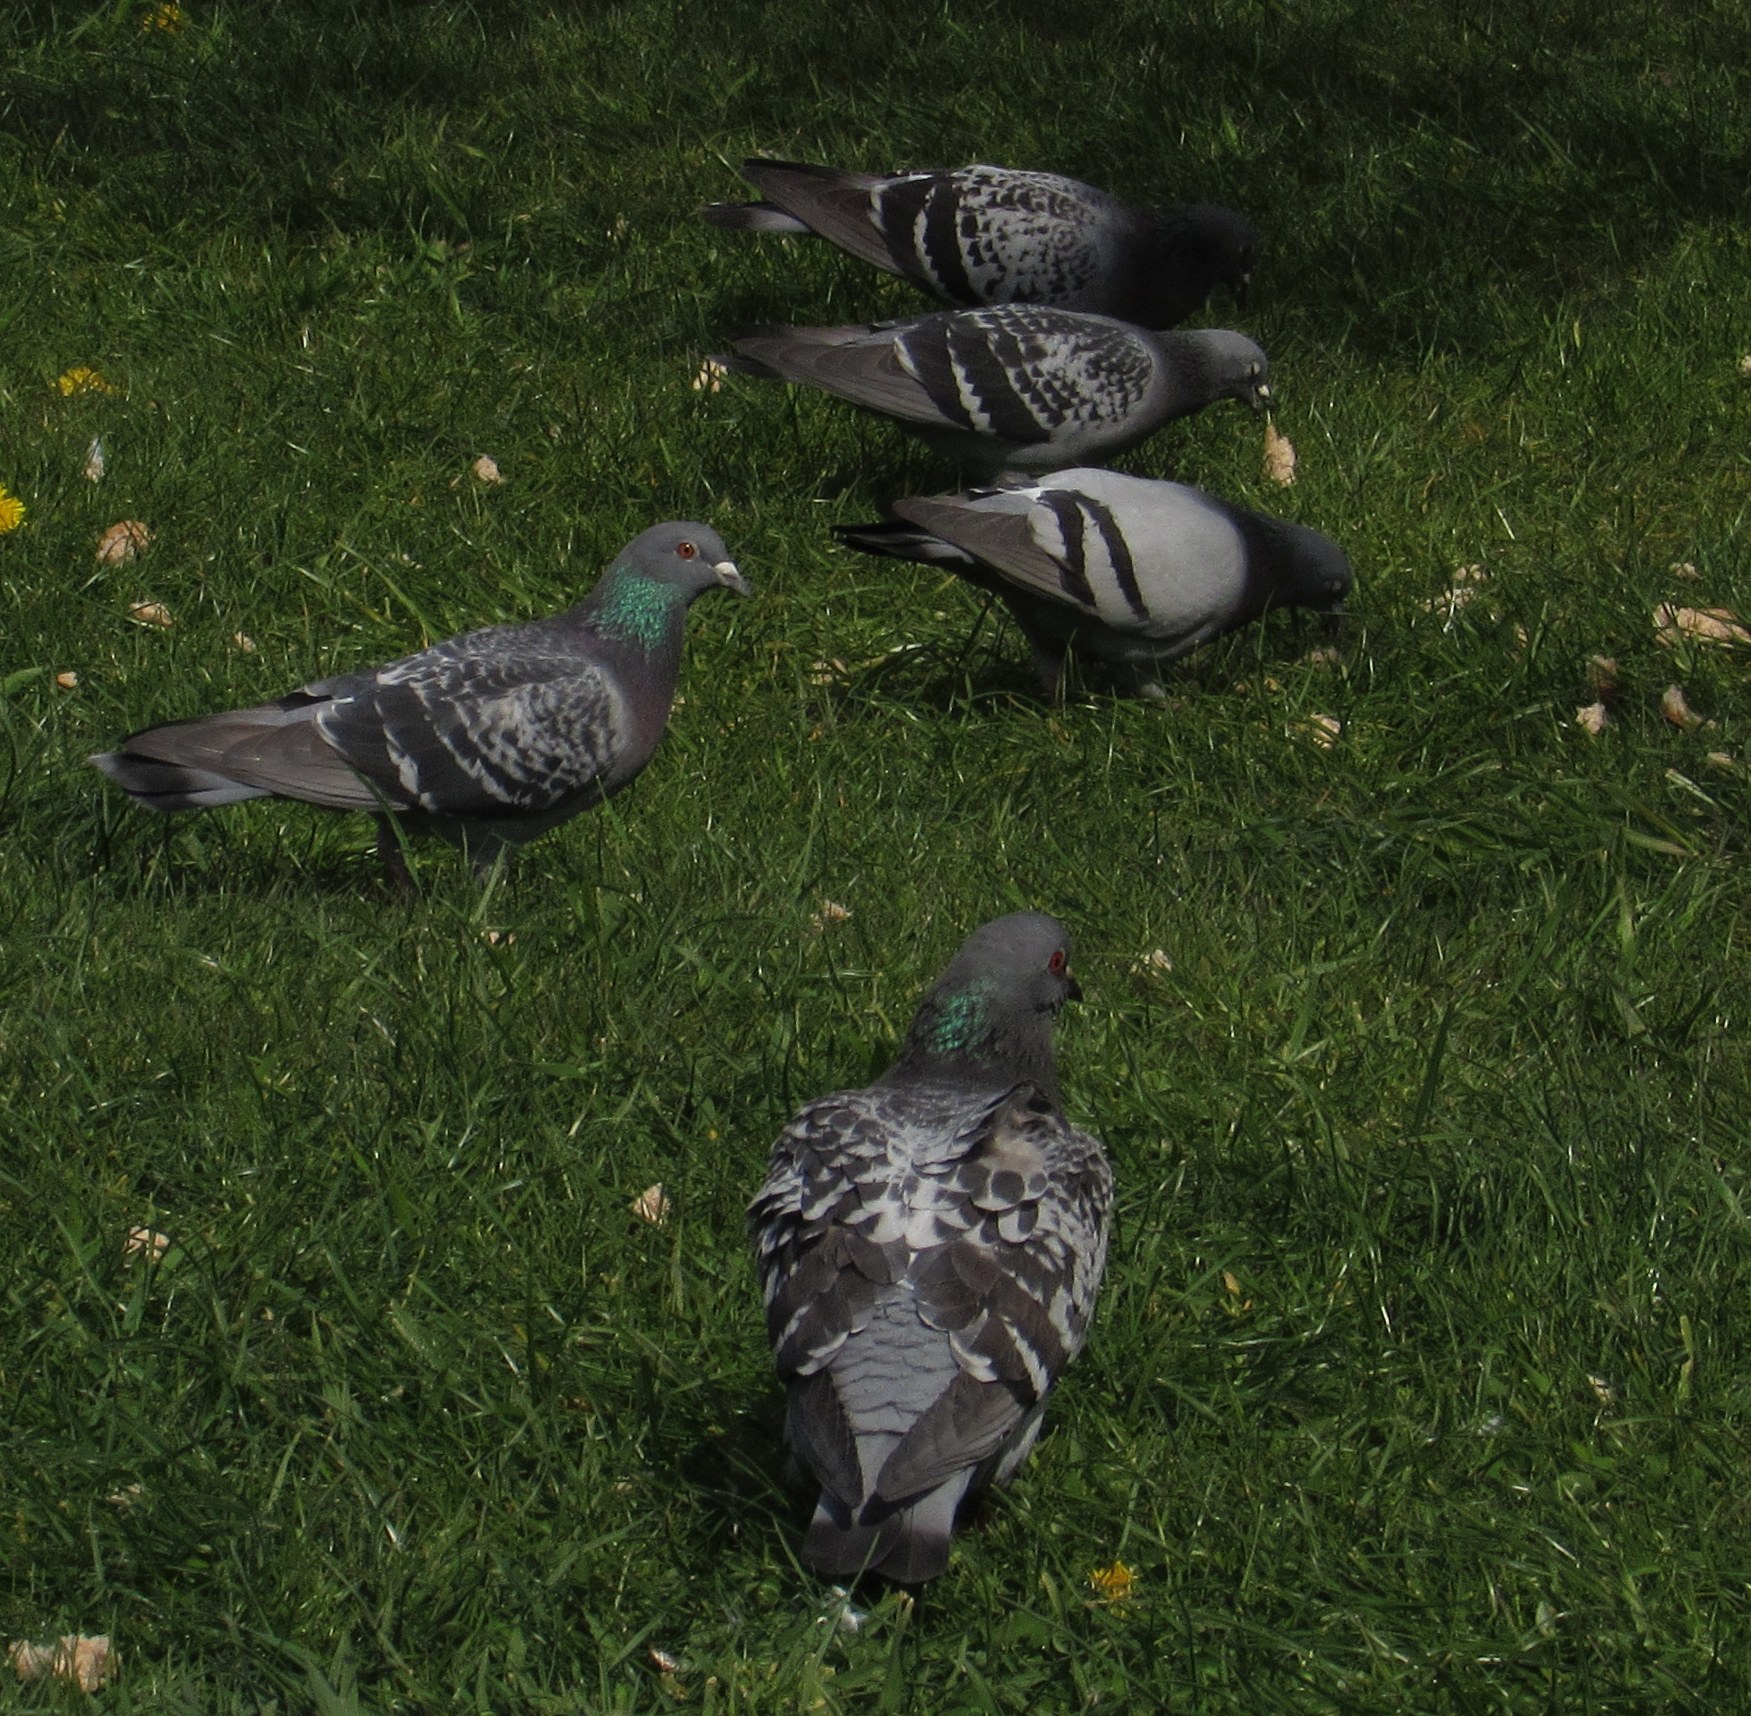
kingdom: Animalia
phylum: Chordata
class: Aves
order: Columbiformes
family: Columbidae
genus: Columba
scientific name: Columba livia
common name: Rock pigeon
